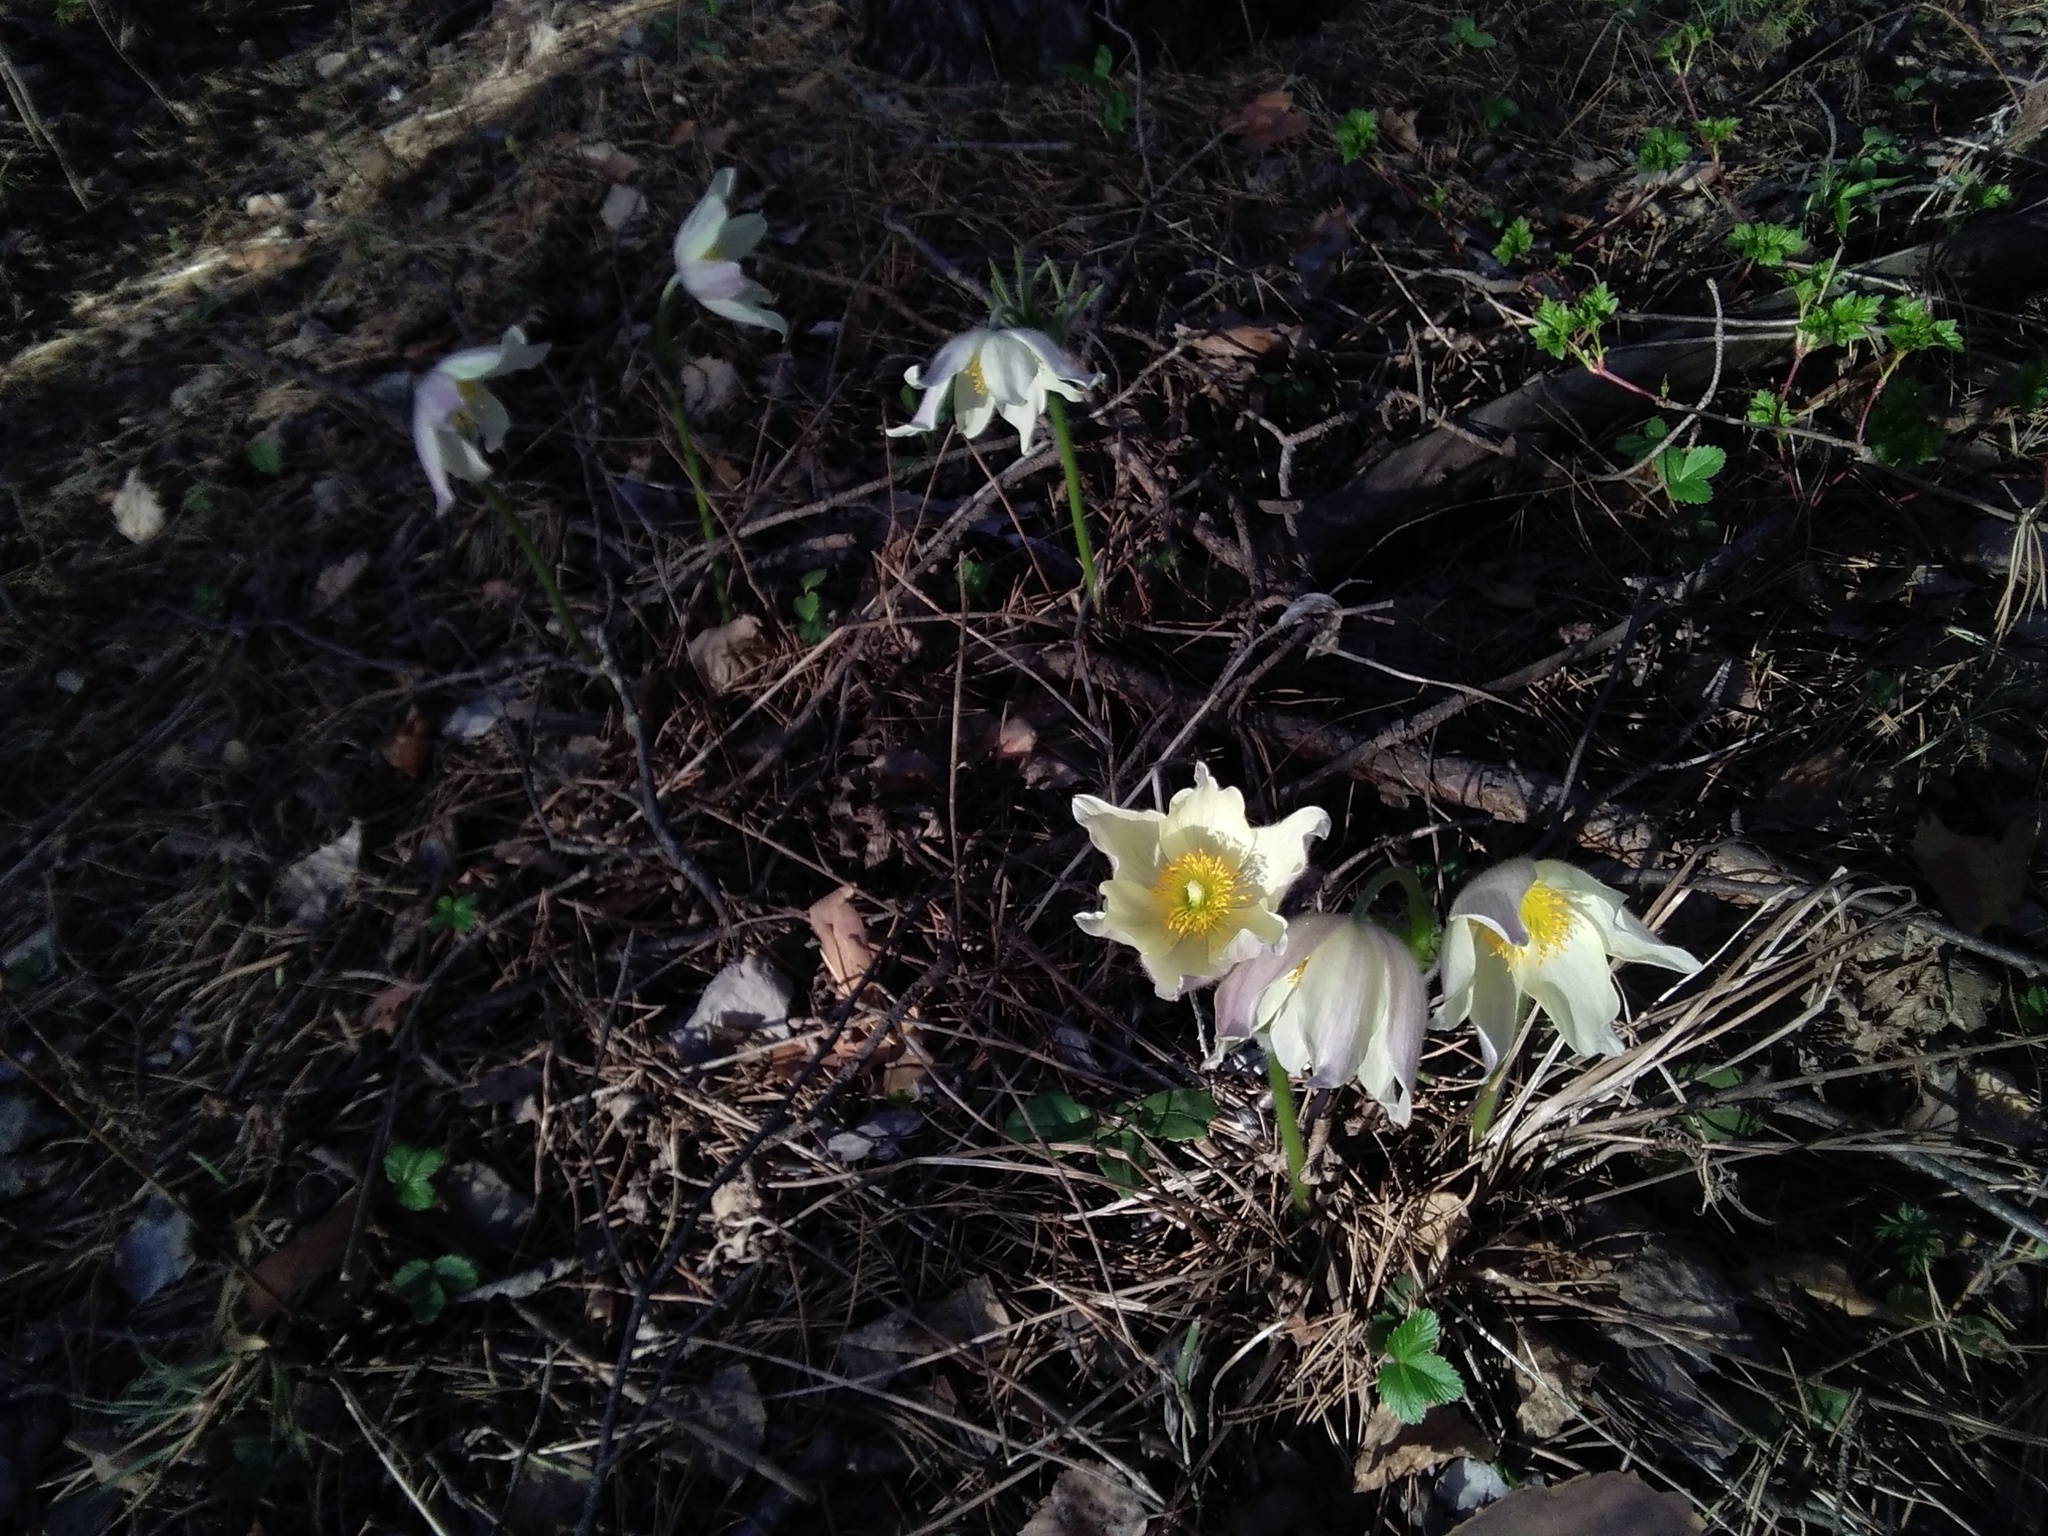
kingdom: Plantae
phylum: Tracheophyta
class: Magnoliopsida
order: Ranunculales
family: Ranunculaceae
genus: Pulsatilla
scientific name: Pulsatilla patens
